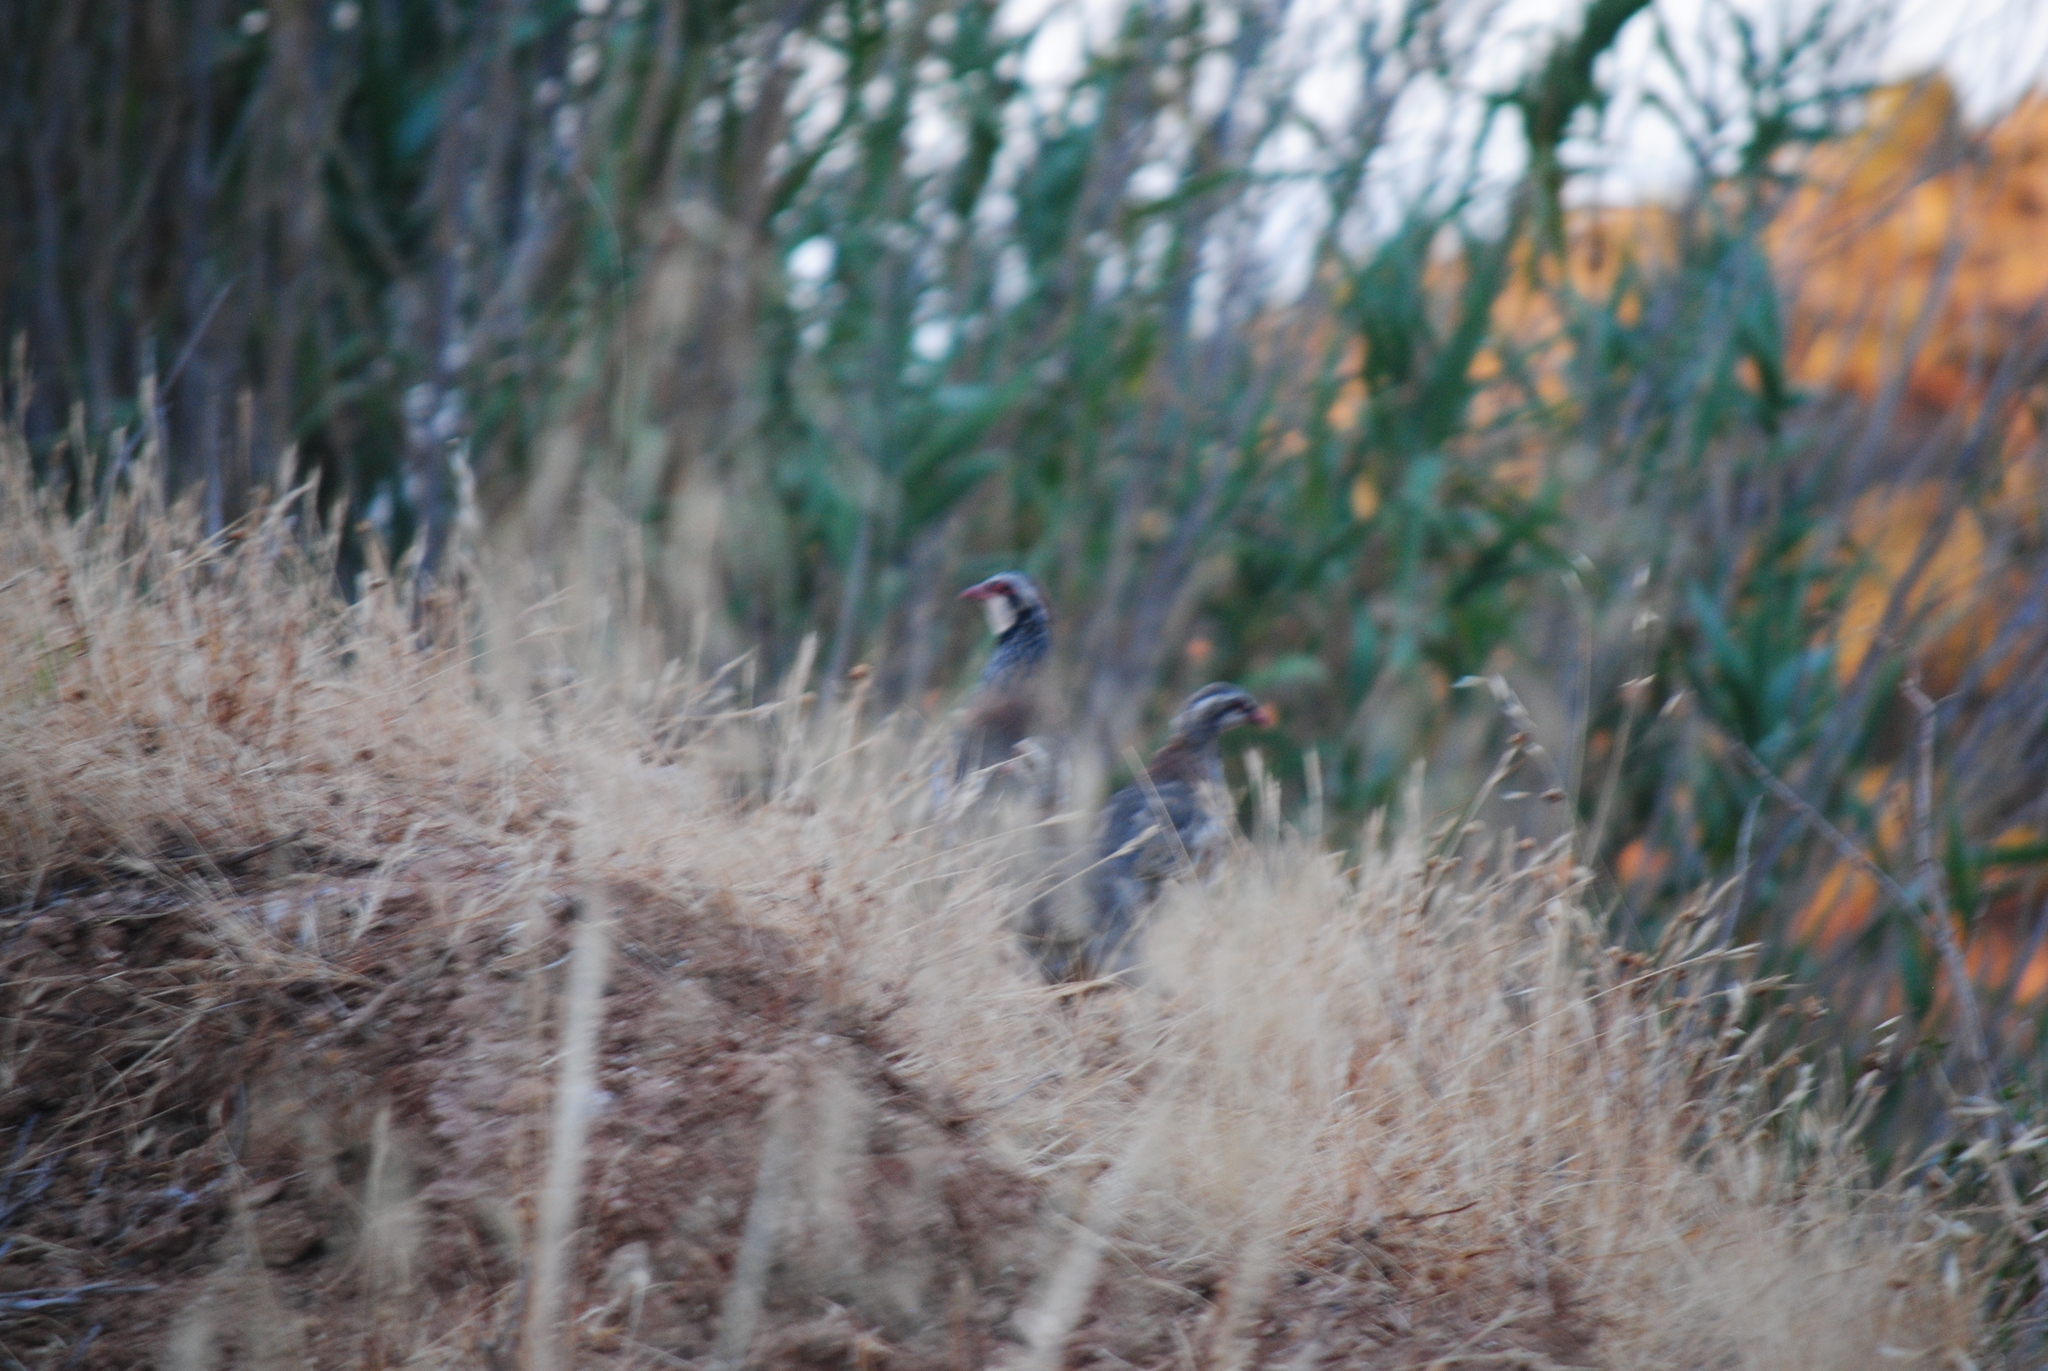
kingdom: Animalia
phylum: Chordata
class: Aves
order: Galliformes
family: Phasianidae
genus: Alectoris
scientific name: Alectoris rufa
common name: Red-legged partridge
